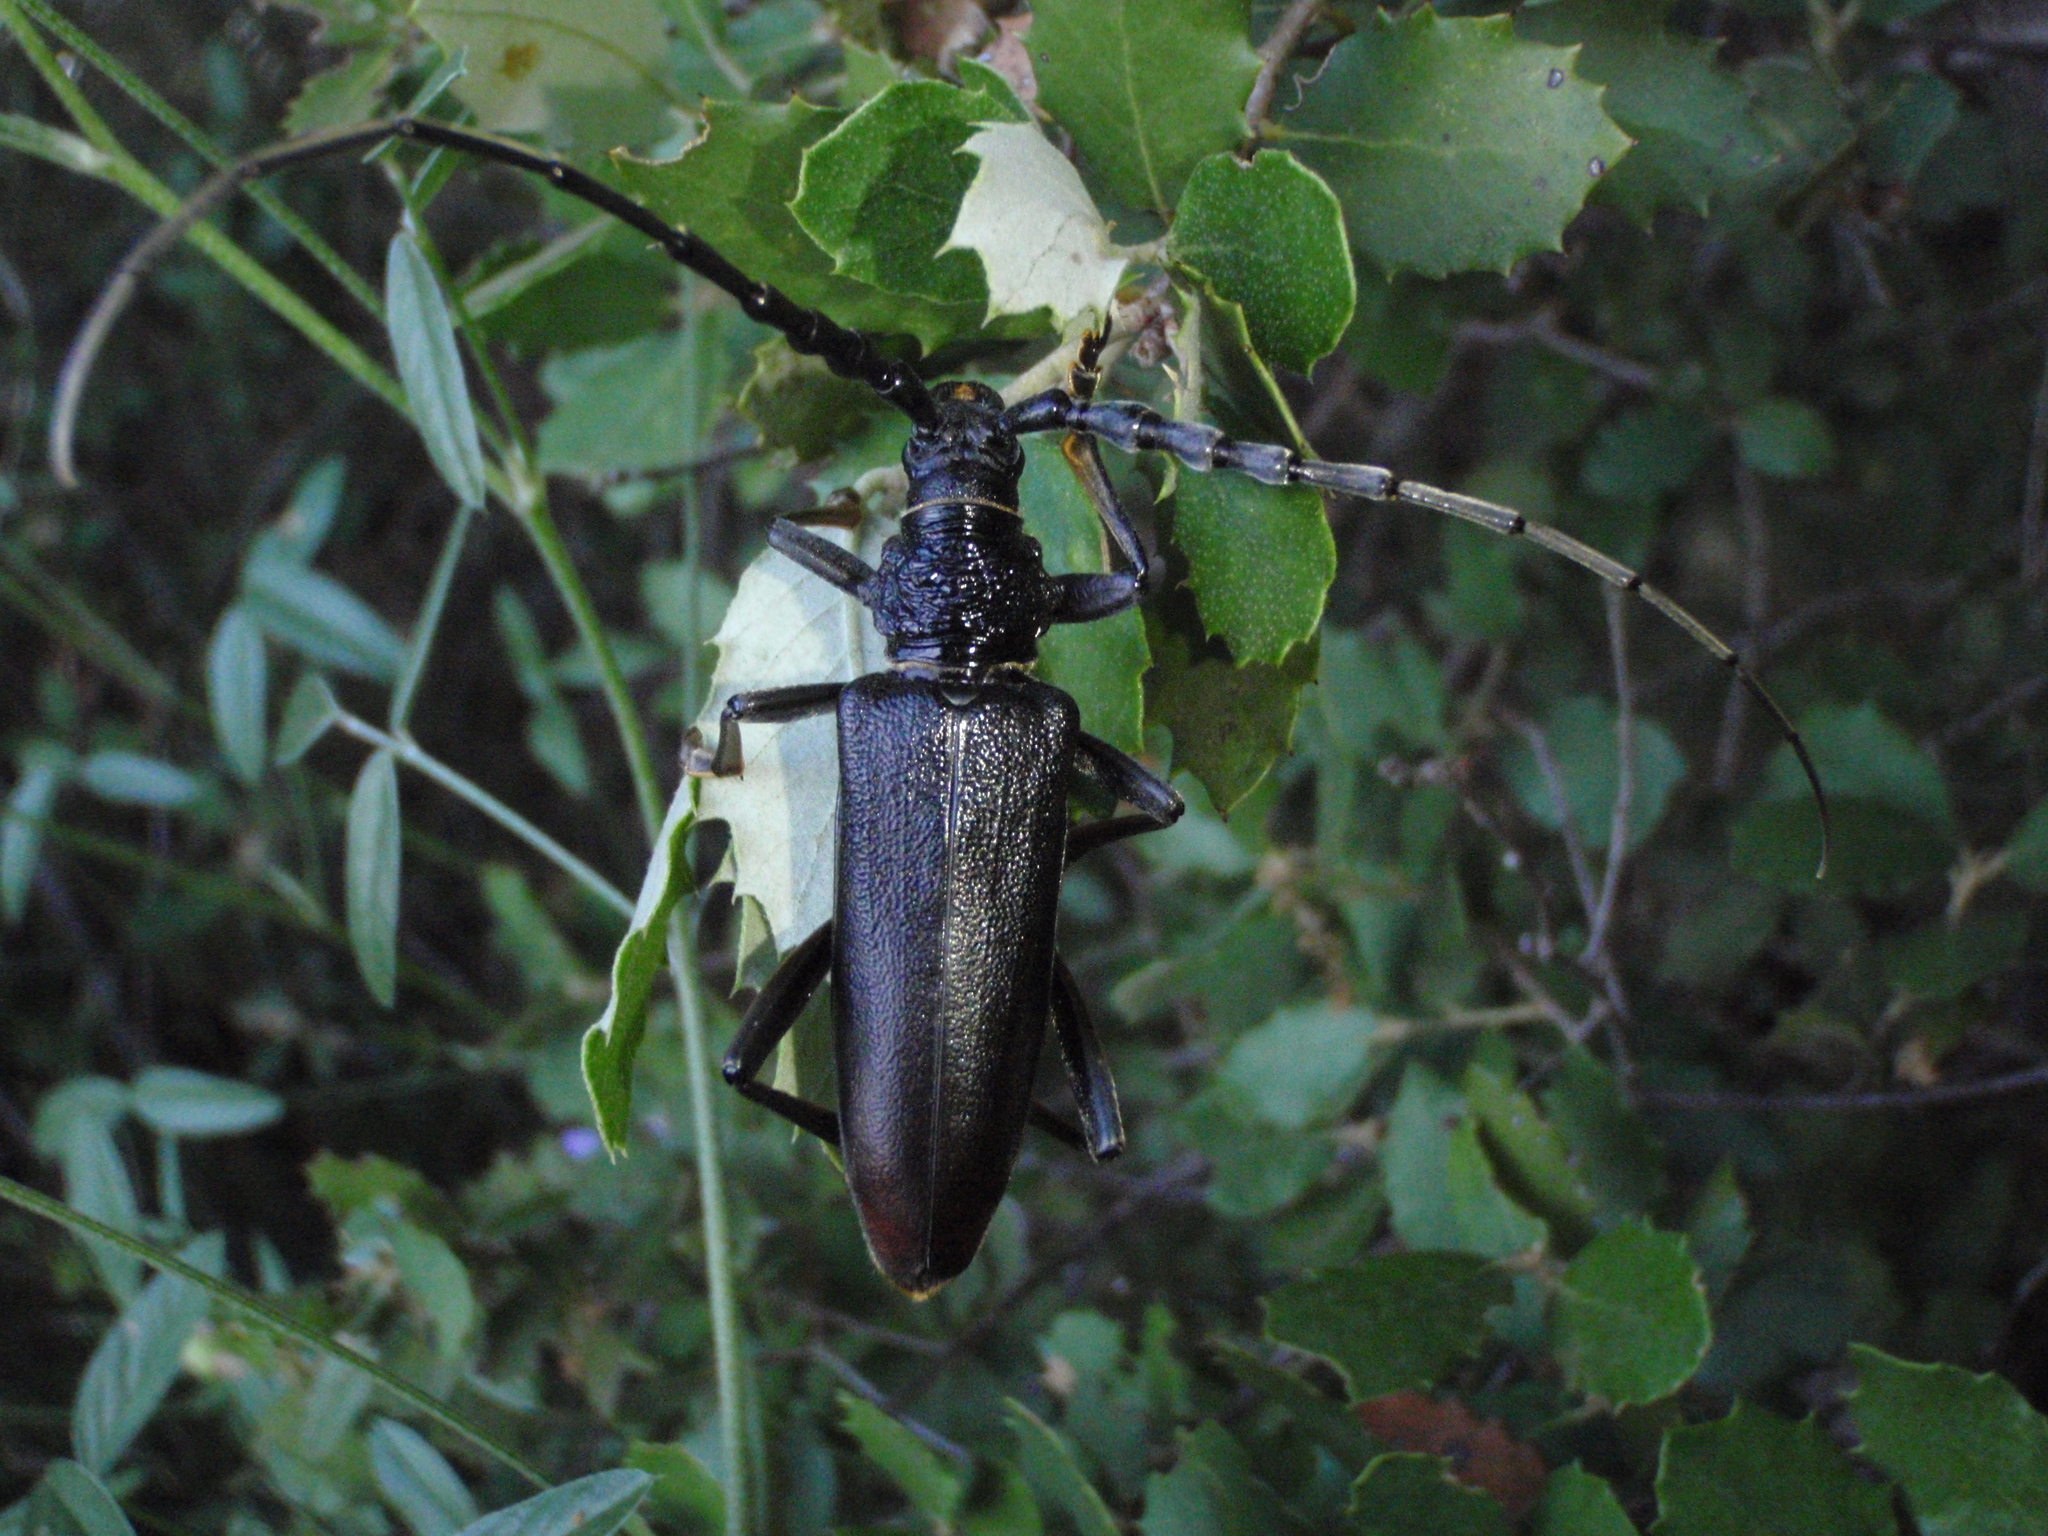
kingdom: Animalia
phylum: Arthropoda
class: Insecta
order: Coleoptera
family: Cerambycidae
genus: Cerambyx
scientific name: Cerambyx miles
